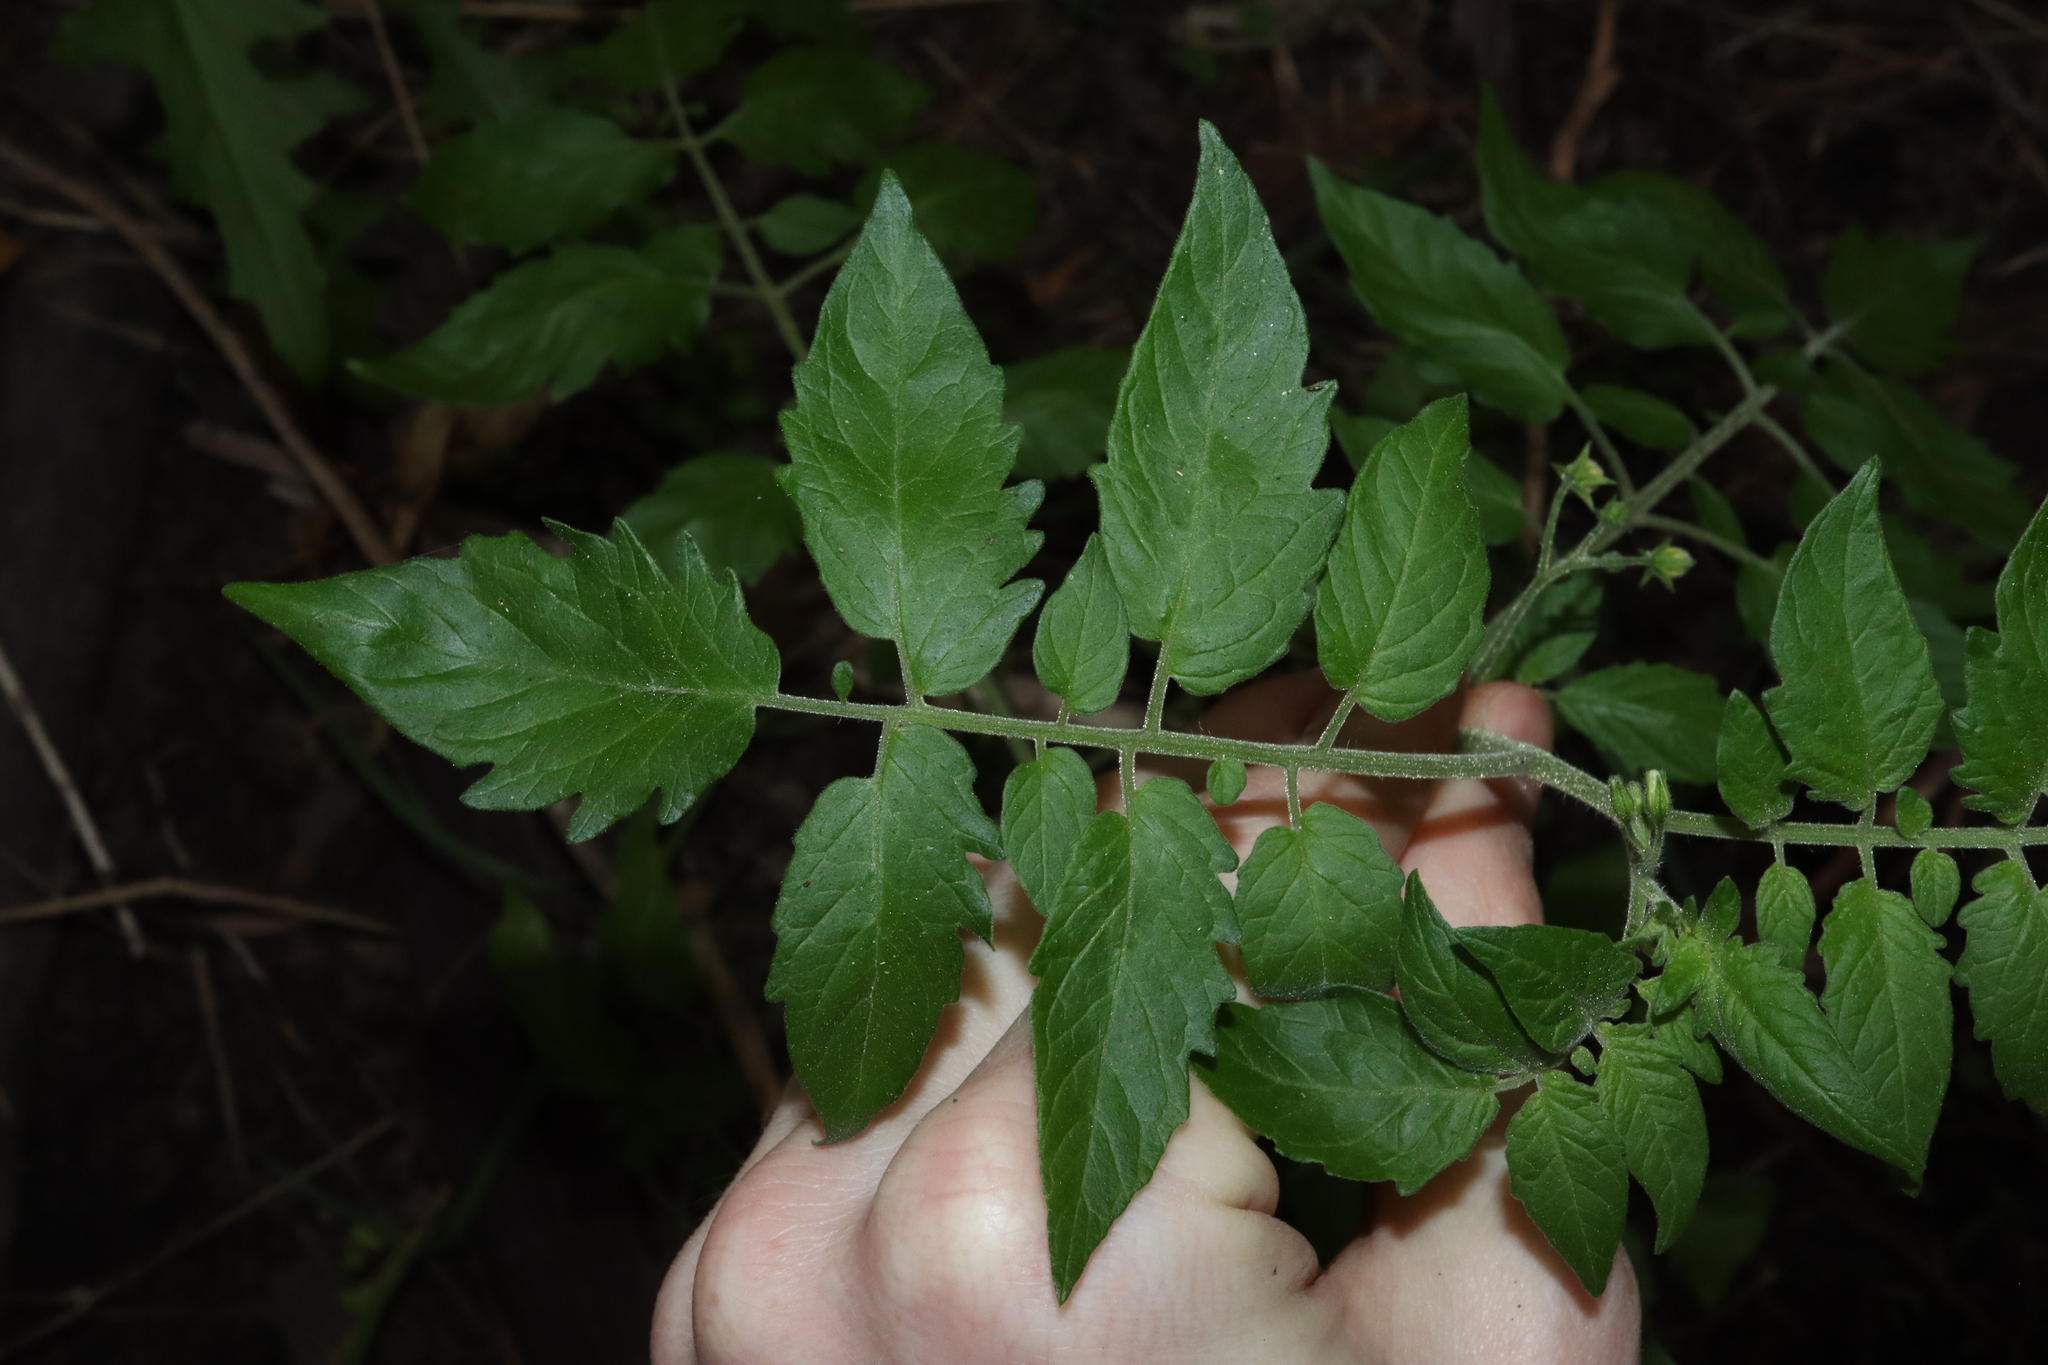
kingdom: Plantae
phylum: Tracheophyta
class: Magnoliopsida
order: Solanales
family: Solanaceae
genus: Solanum
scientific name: Solanum lycopersicum
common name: Garden tomato
